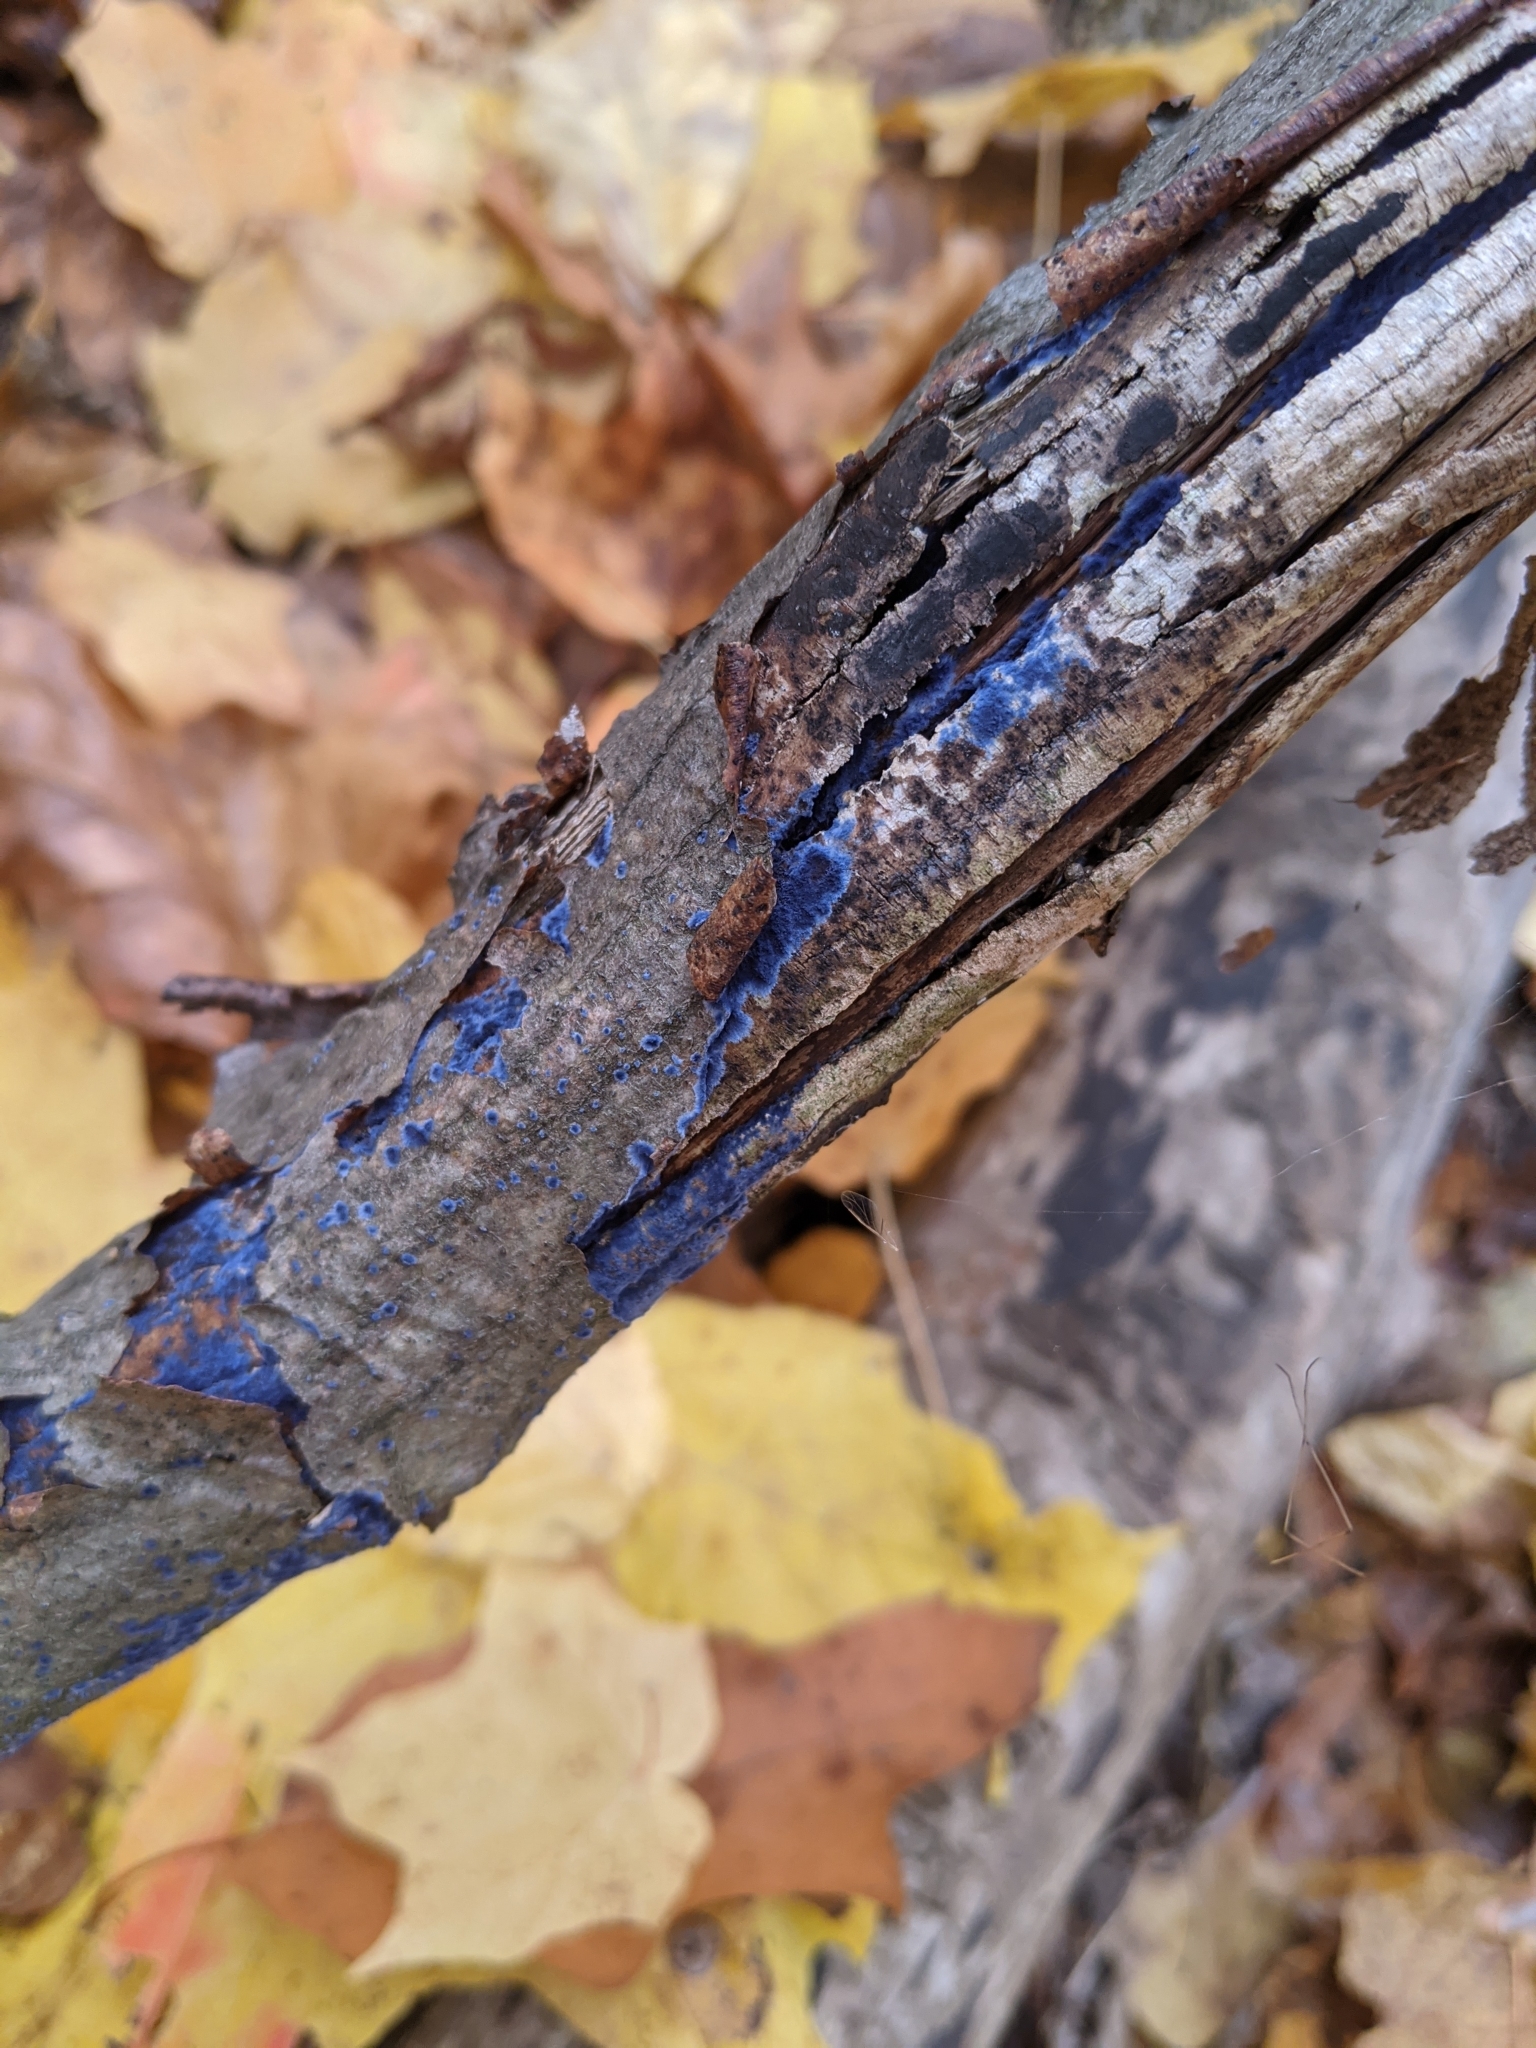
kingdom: Fungi
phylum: Basidiomycota
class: Agaricomycetes
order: Polyporales
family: Phanerochaetaceae
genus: Terana
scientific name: Terana coerulea
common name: Cobalt crust
